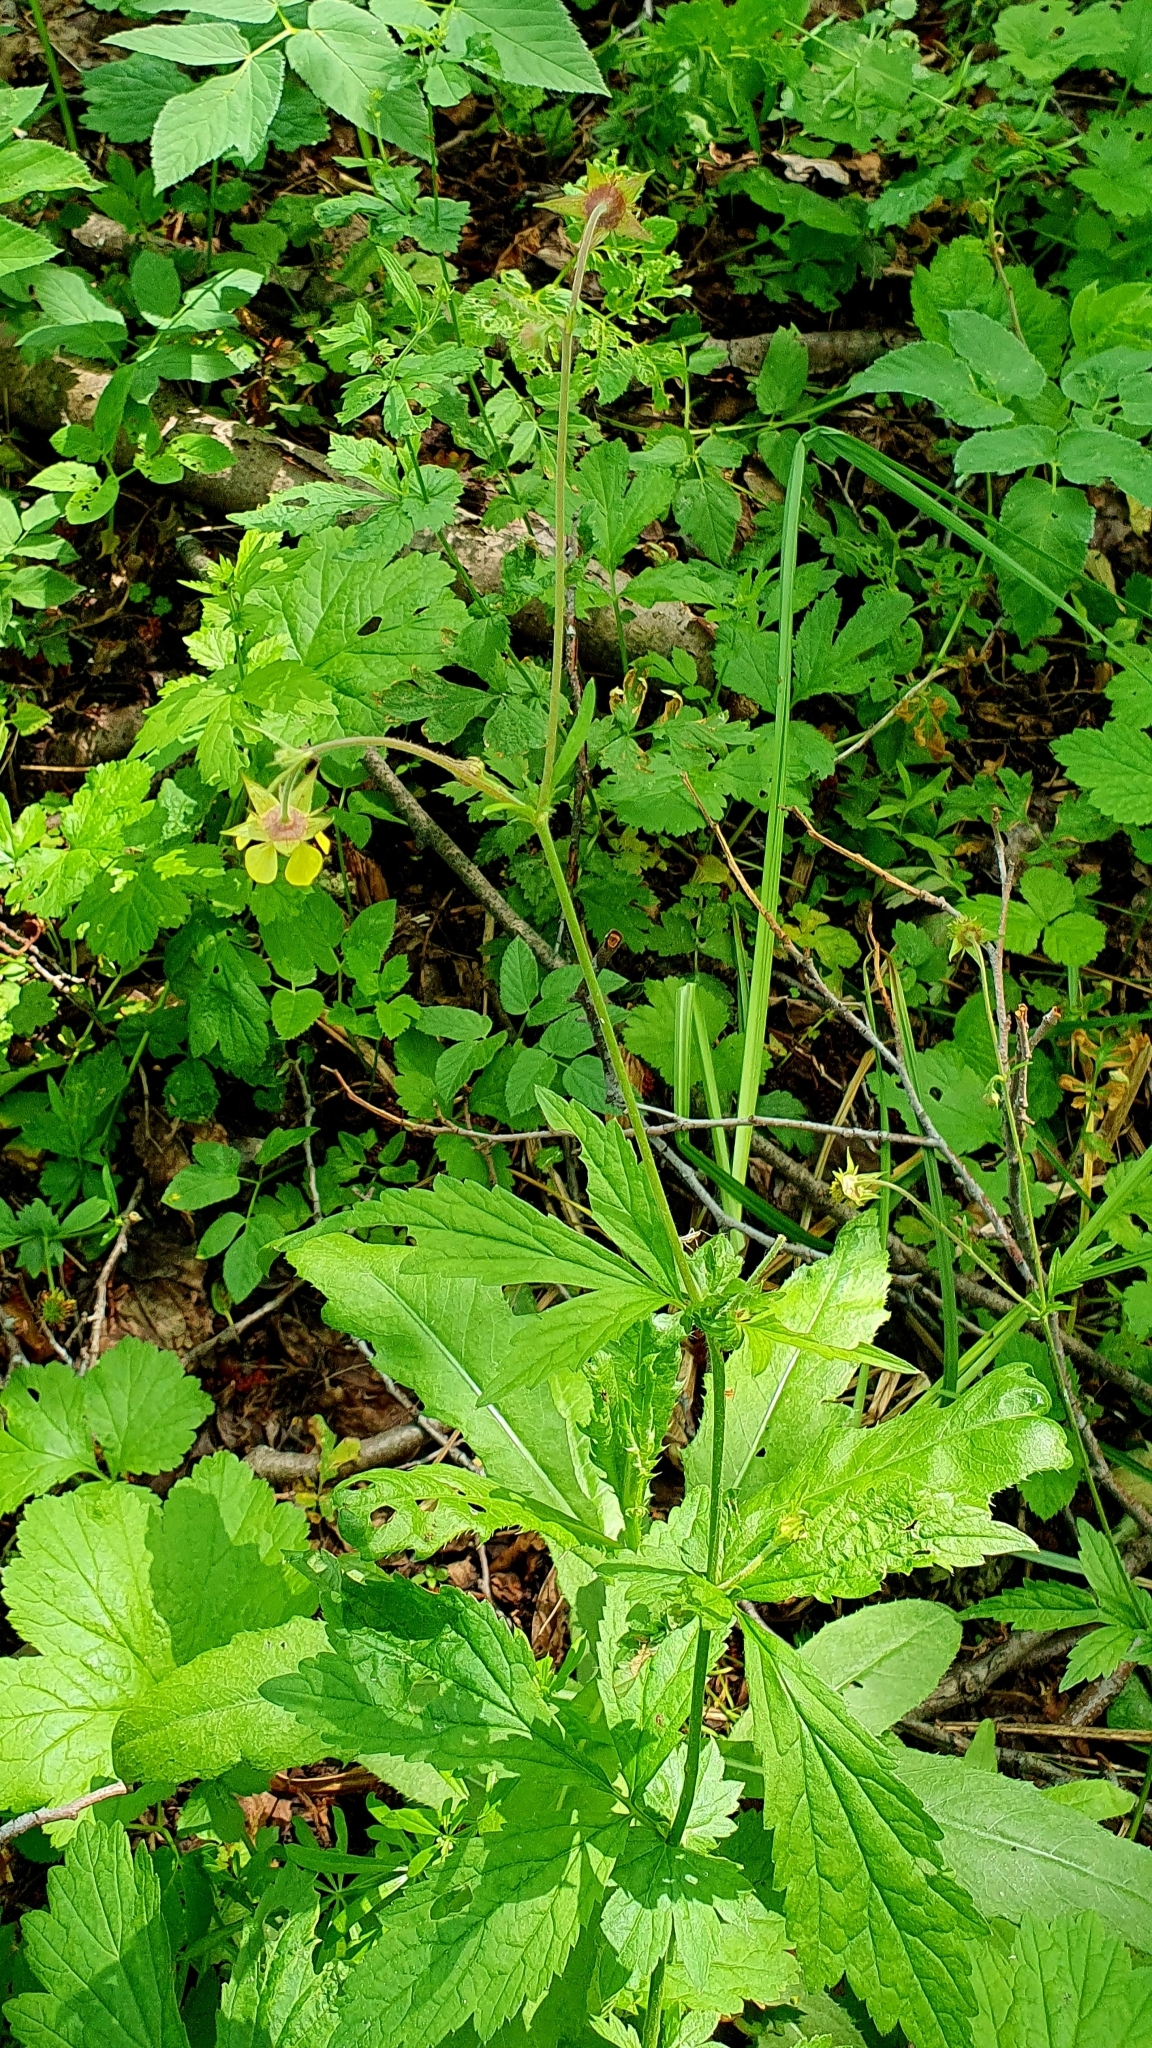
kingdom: Plantae
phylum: Tracheophyta
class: Magnoliopsida
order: Rosales
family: Rosaceae
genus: Geum
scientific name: Geum intermedium
